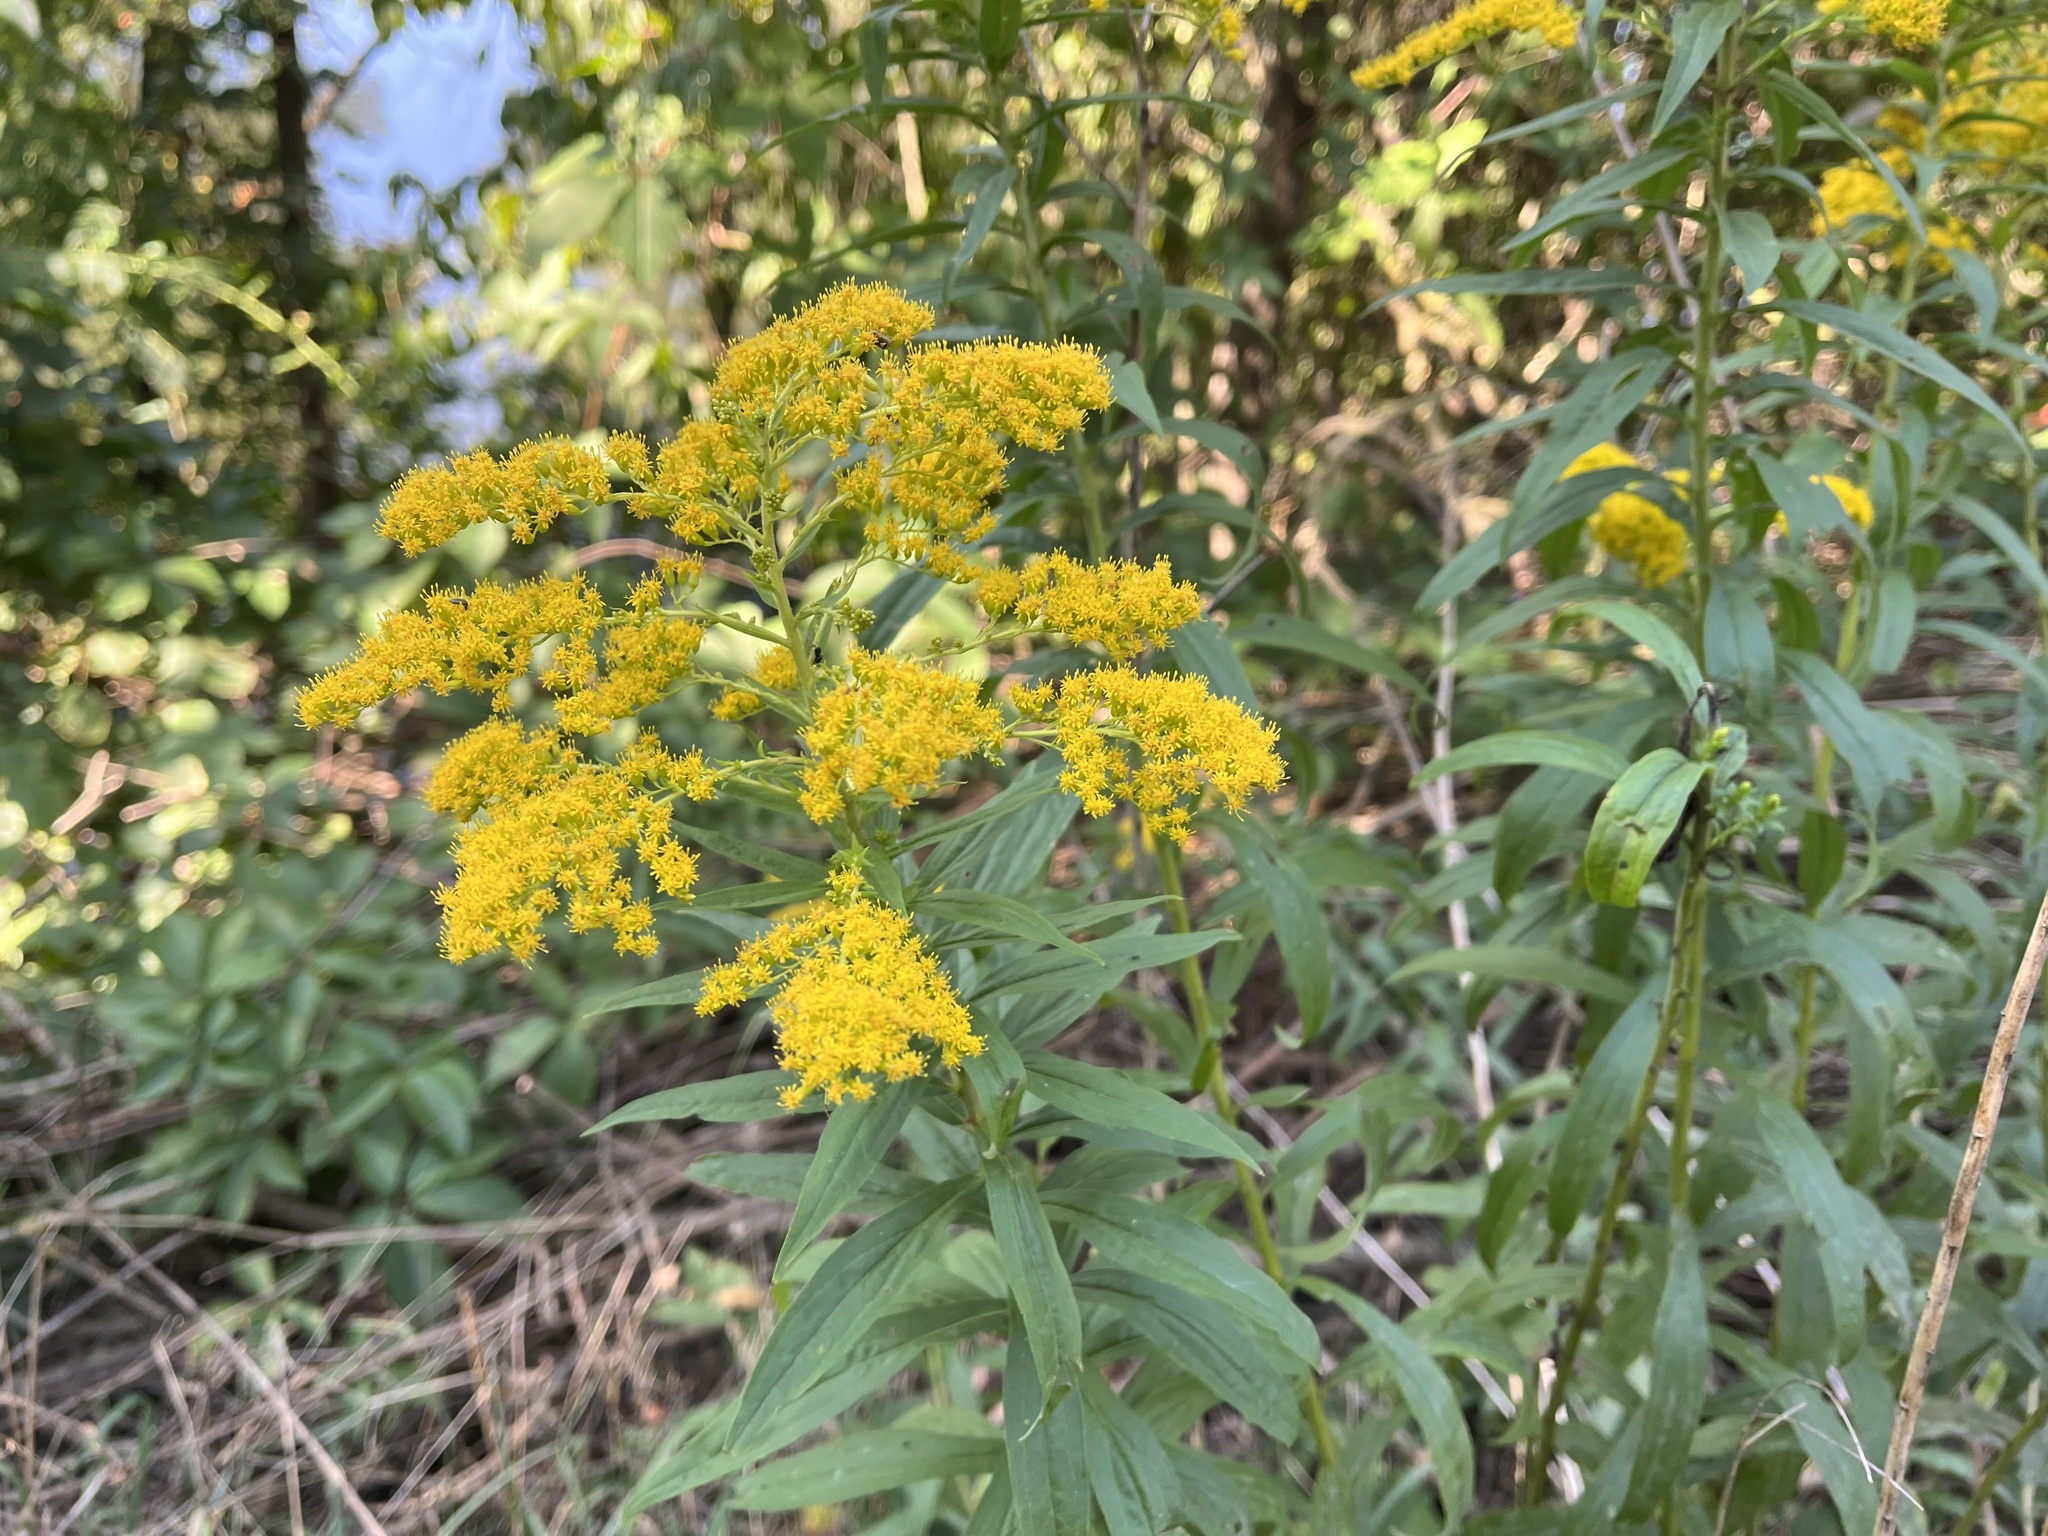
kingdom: Plantae
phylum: Tracheophyta
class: Magnoliopsida
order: Asterales
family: Asteraceae
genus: Solidago
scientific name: Solidago canadensis
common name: Canada goldenrod
